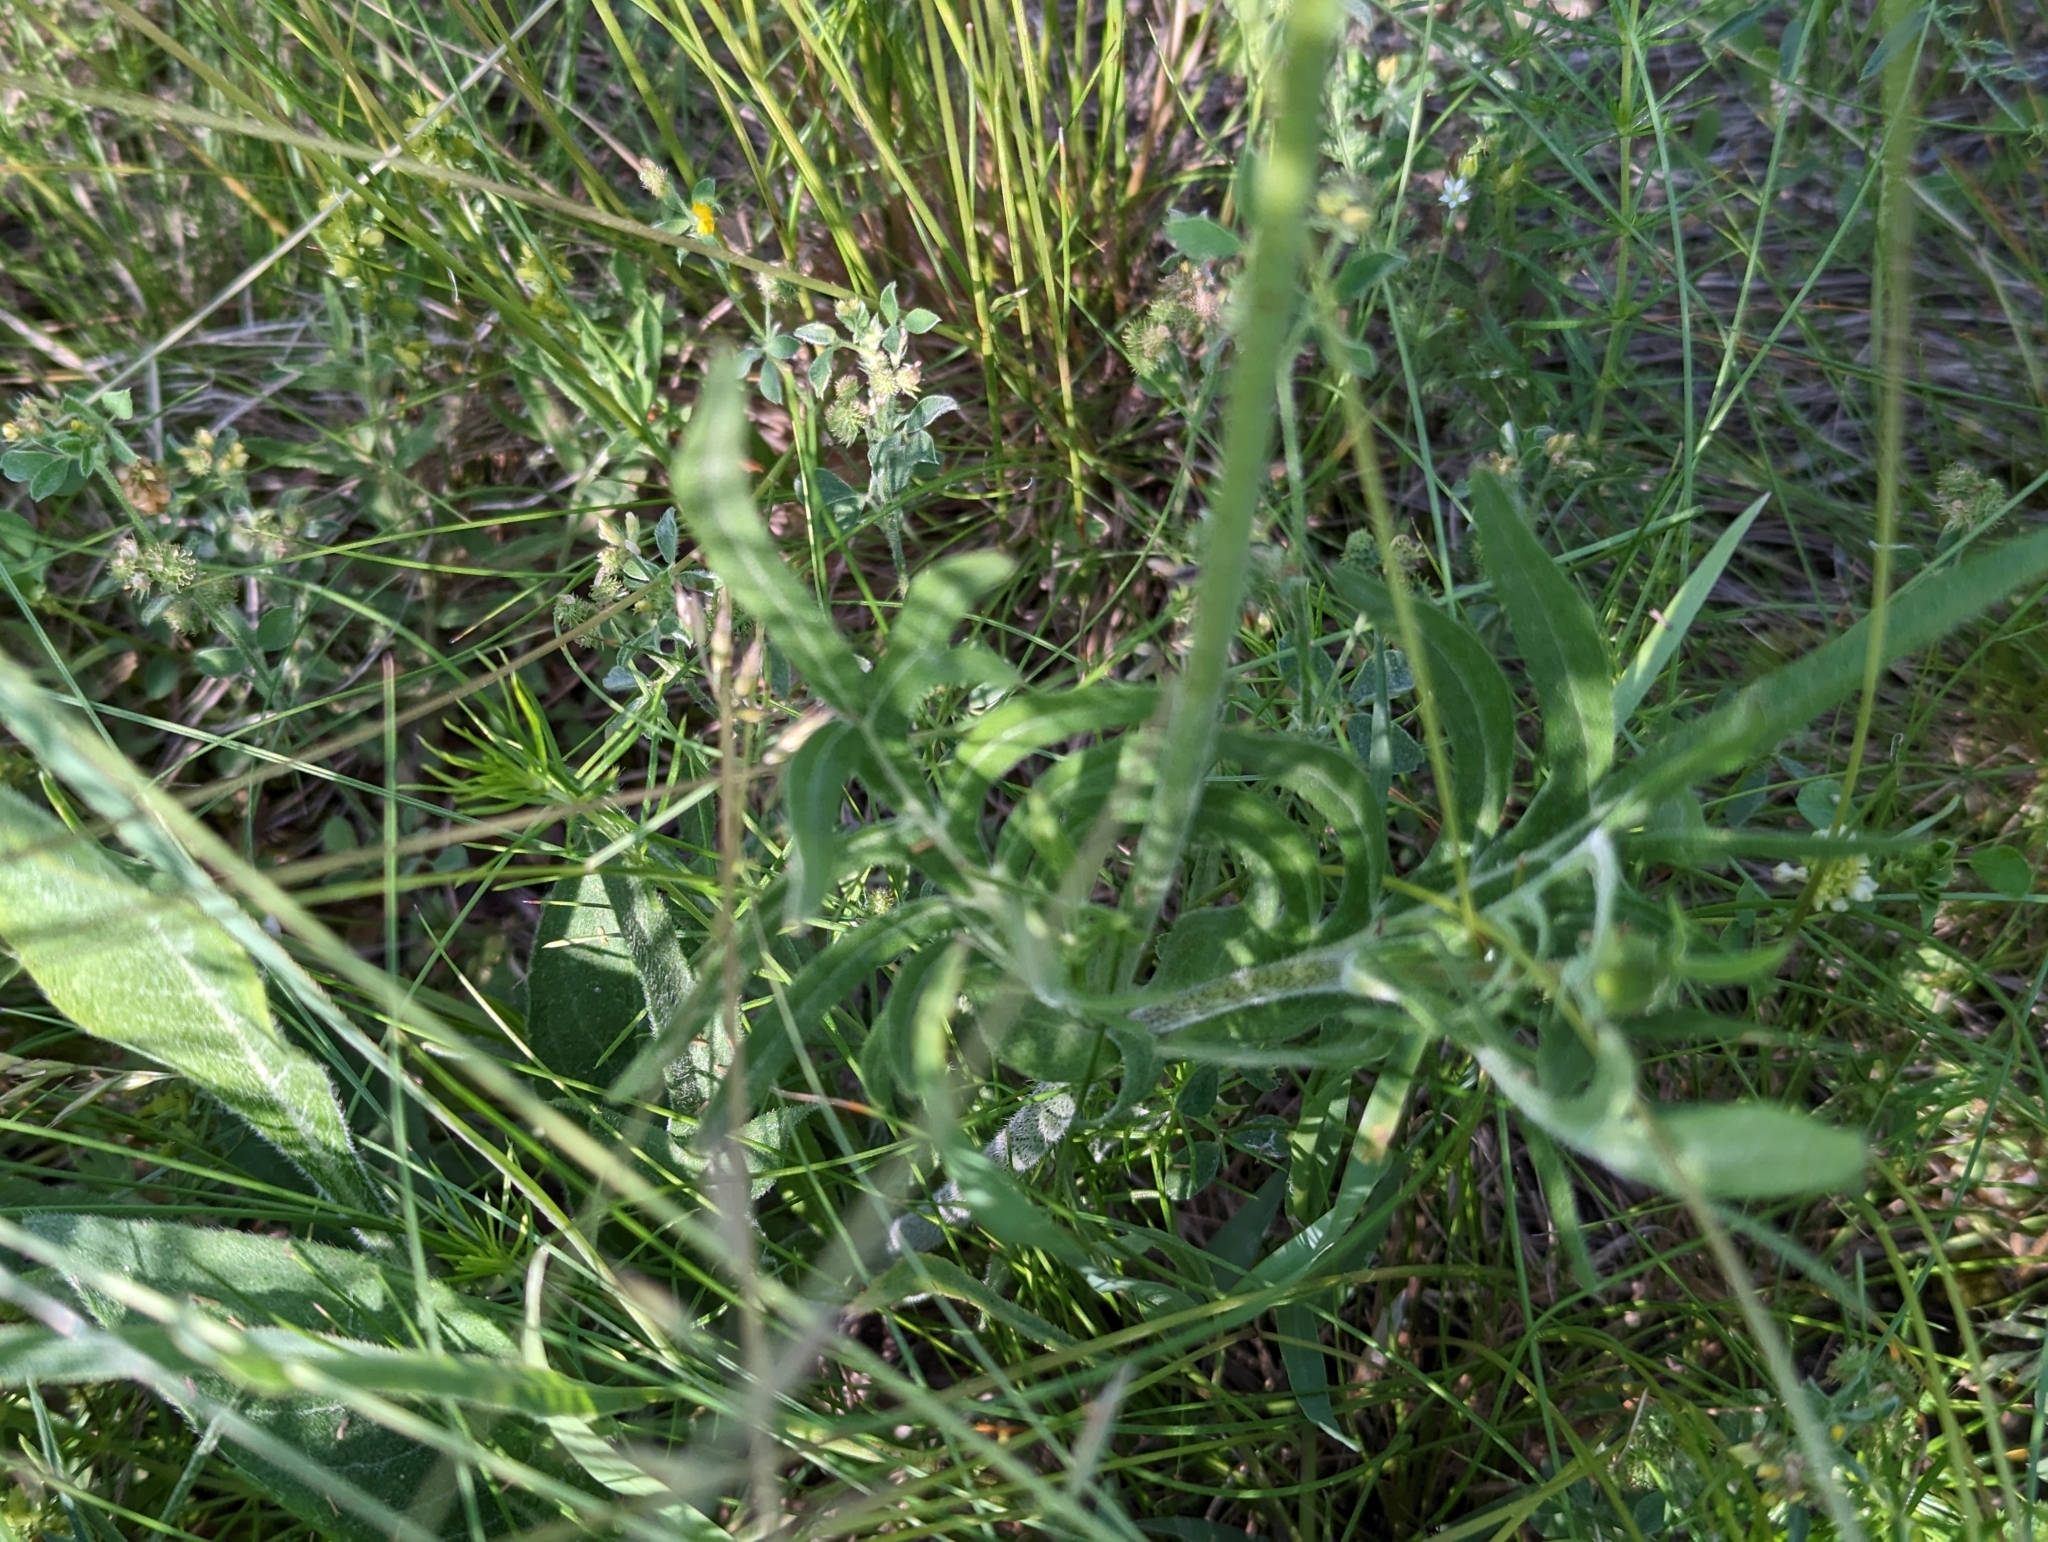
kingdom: Plantae
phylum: Tracheophyta
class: Magnoliopsida
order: Dipsacales
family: Caprifoliaceae
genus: Knautia
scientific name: Knautia arvensis
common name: Field scabiosa
